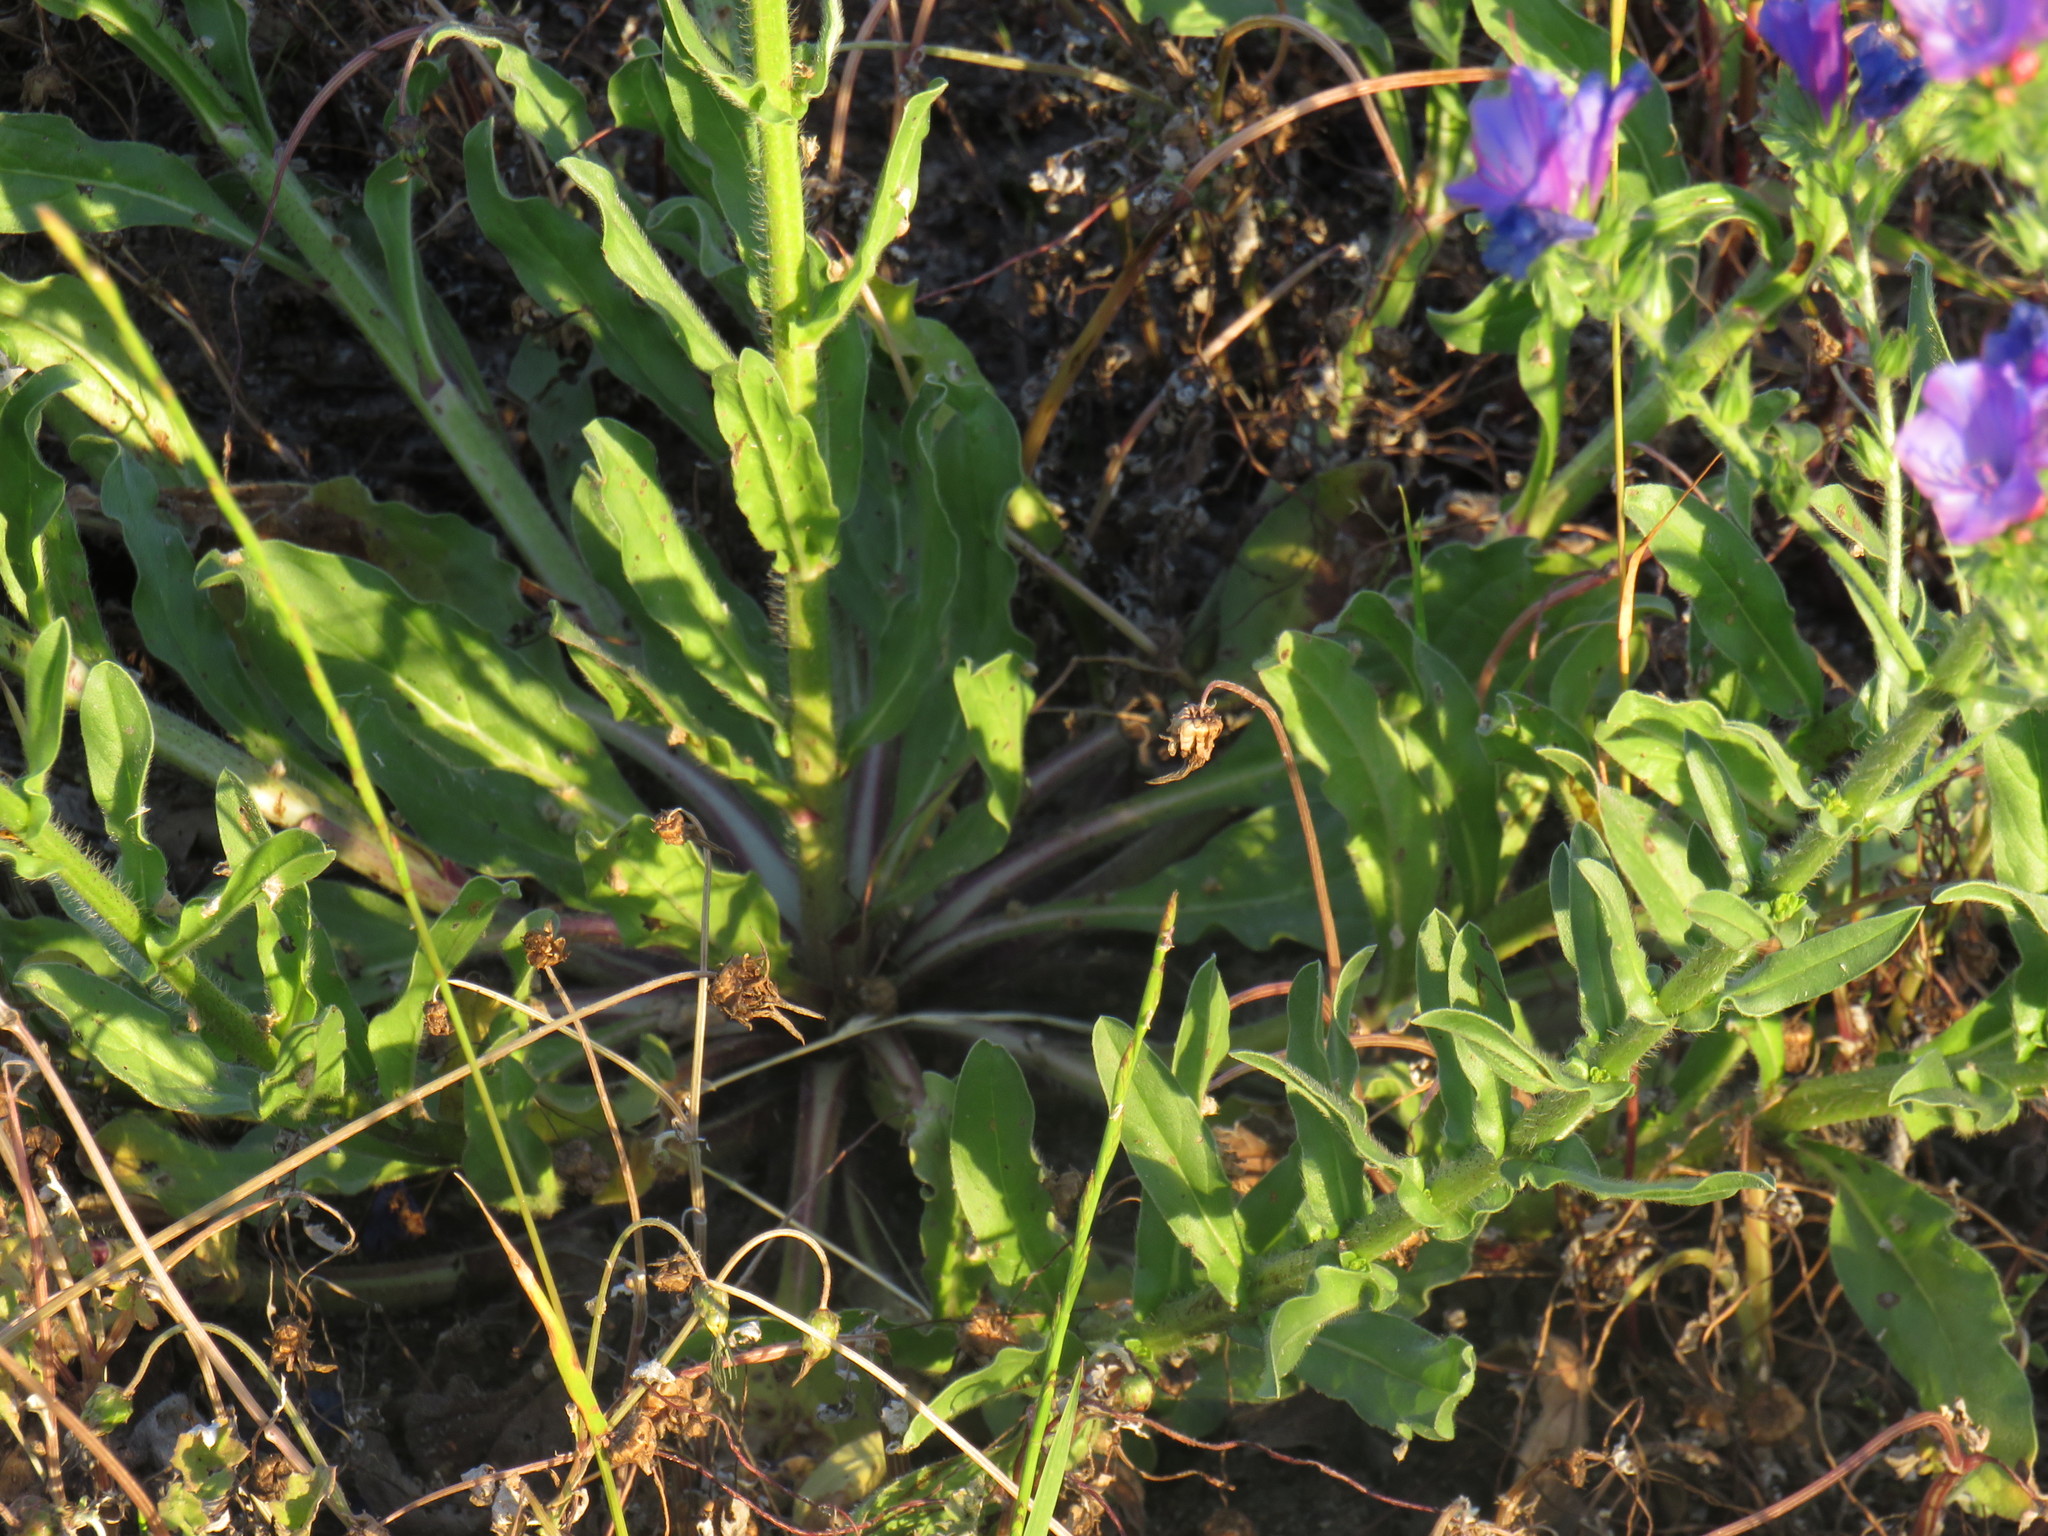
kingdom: Plantae
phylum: Tracheophyta
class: Magnoliopsida
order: Boraginales
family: Boraginaceae
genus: Echium
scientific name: Echium plantagineum
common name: Purple viper's-bugloss
